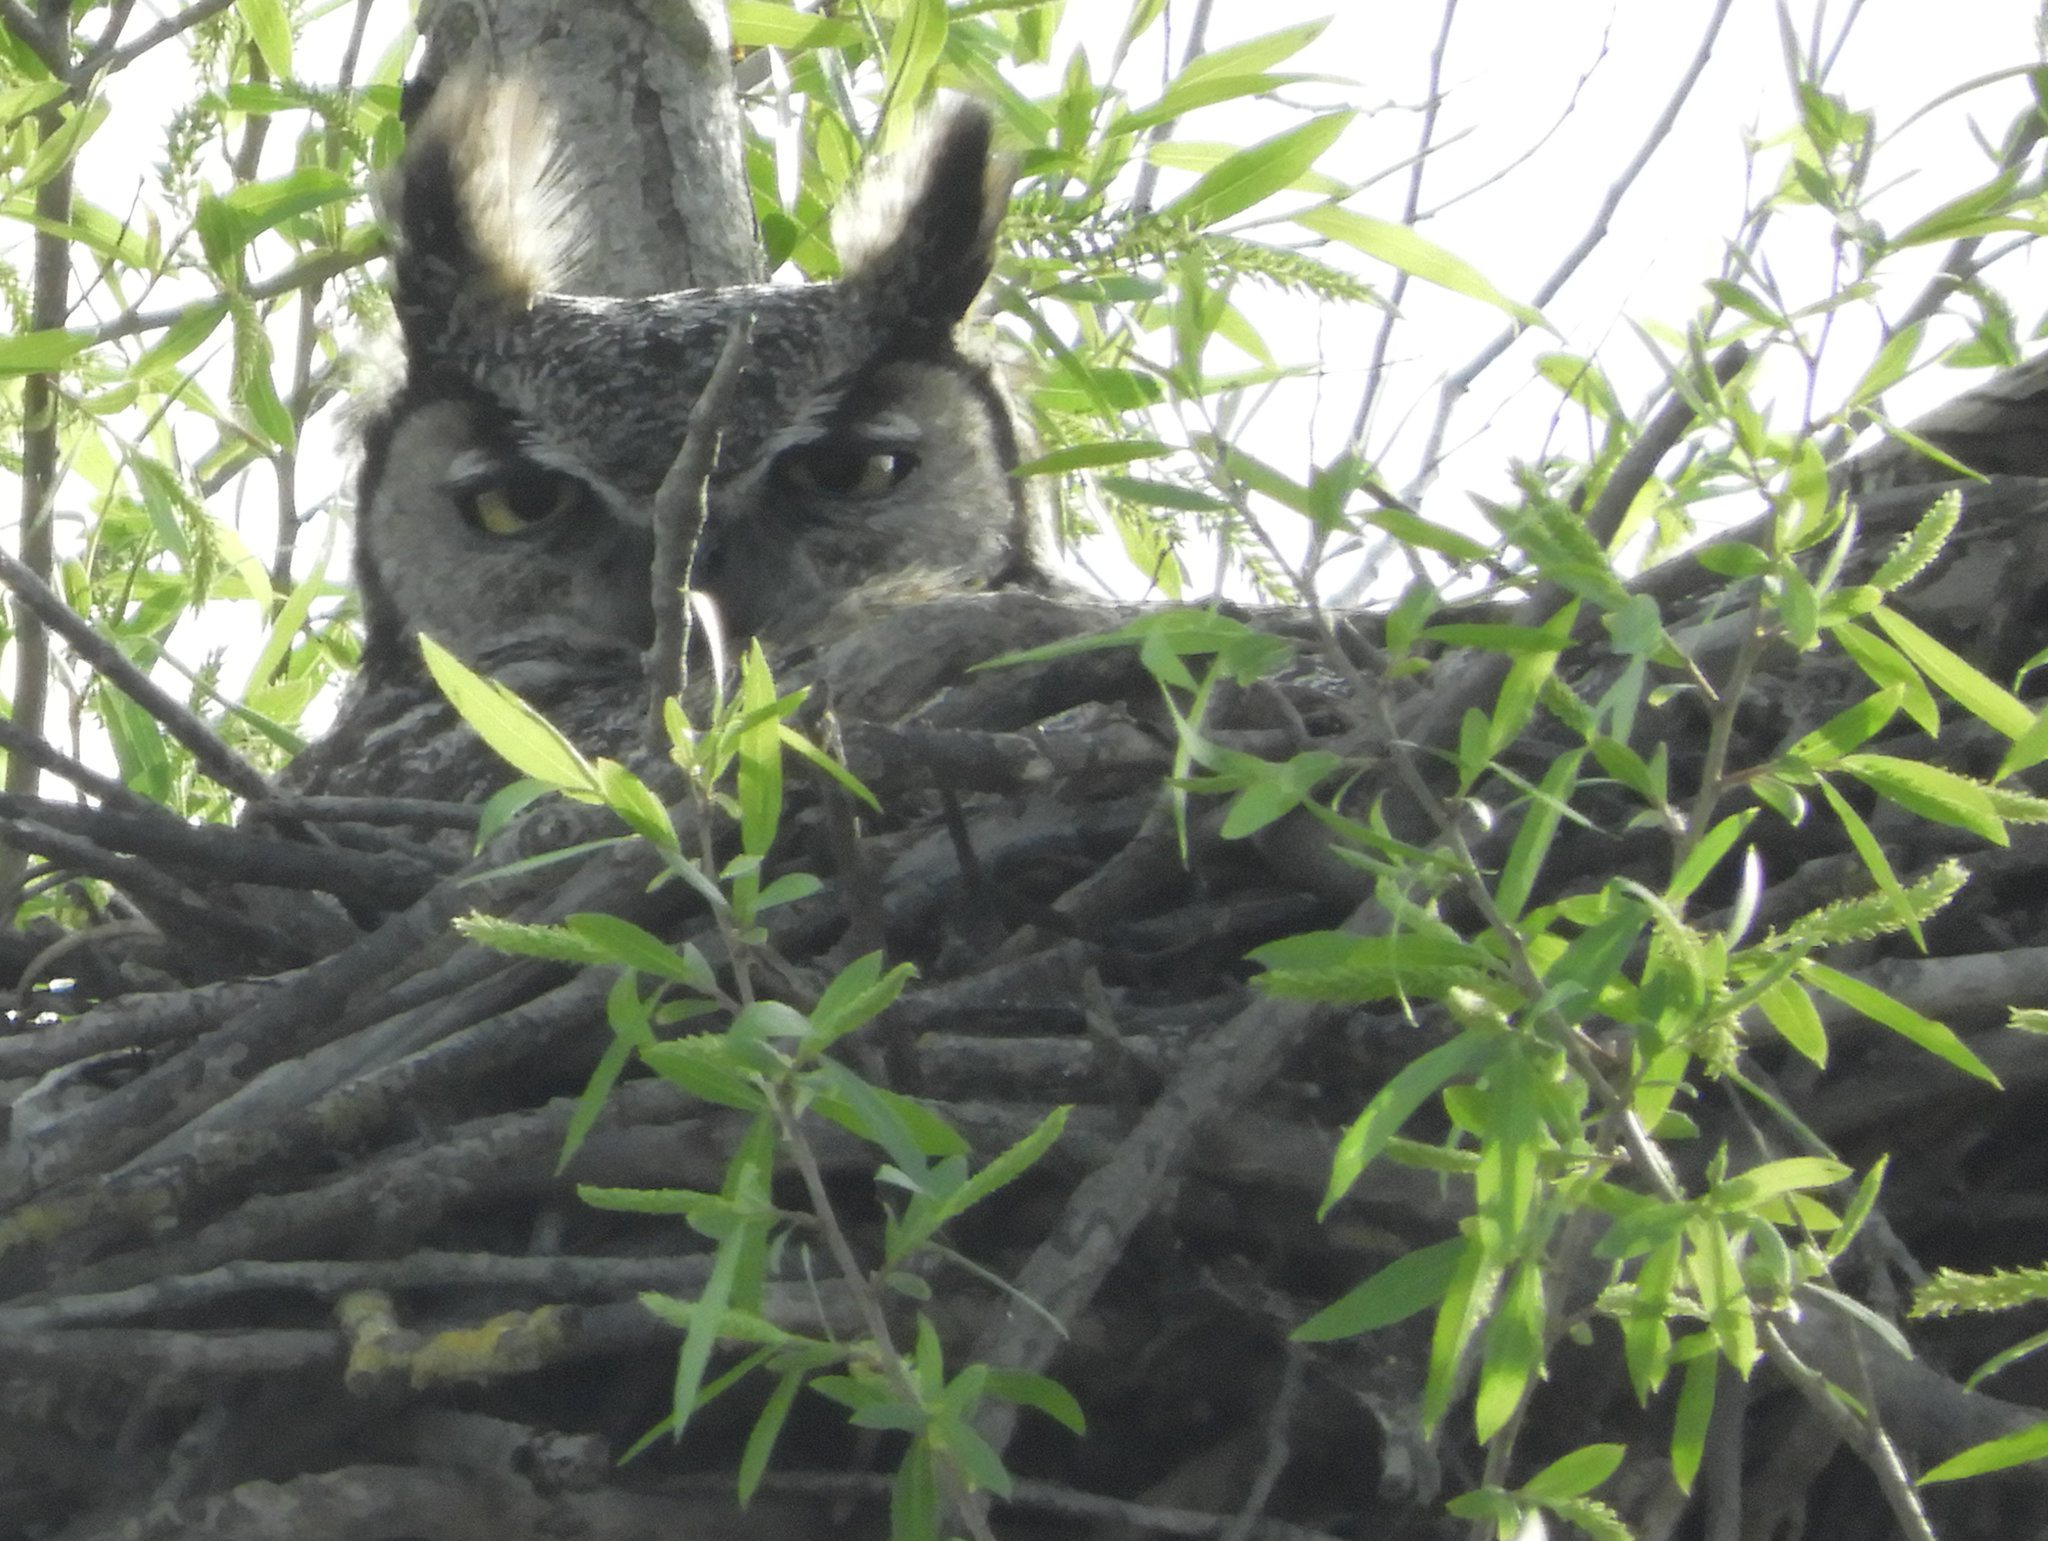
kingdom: Animalia
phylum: Chordata
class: Aves
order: Strigiformes
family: Strigidae
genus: Bubo
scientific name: Bubo virginianus
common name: Great horned owl
